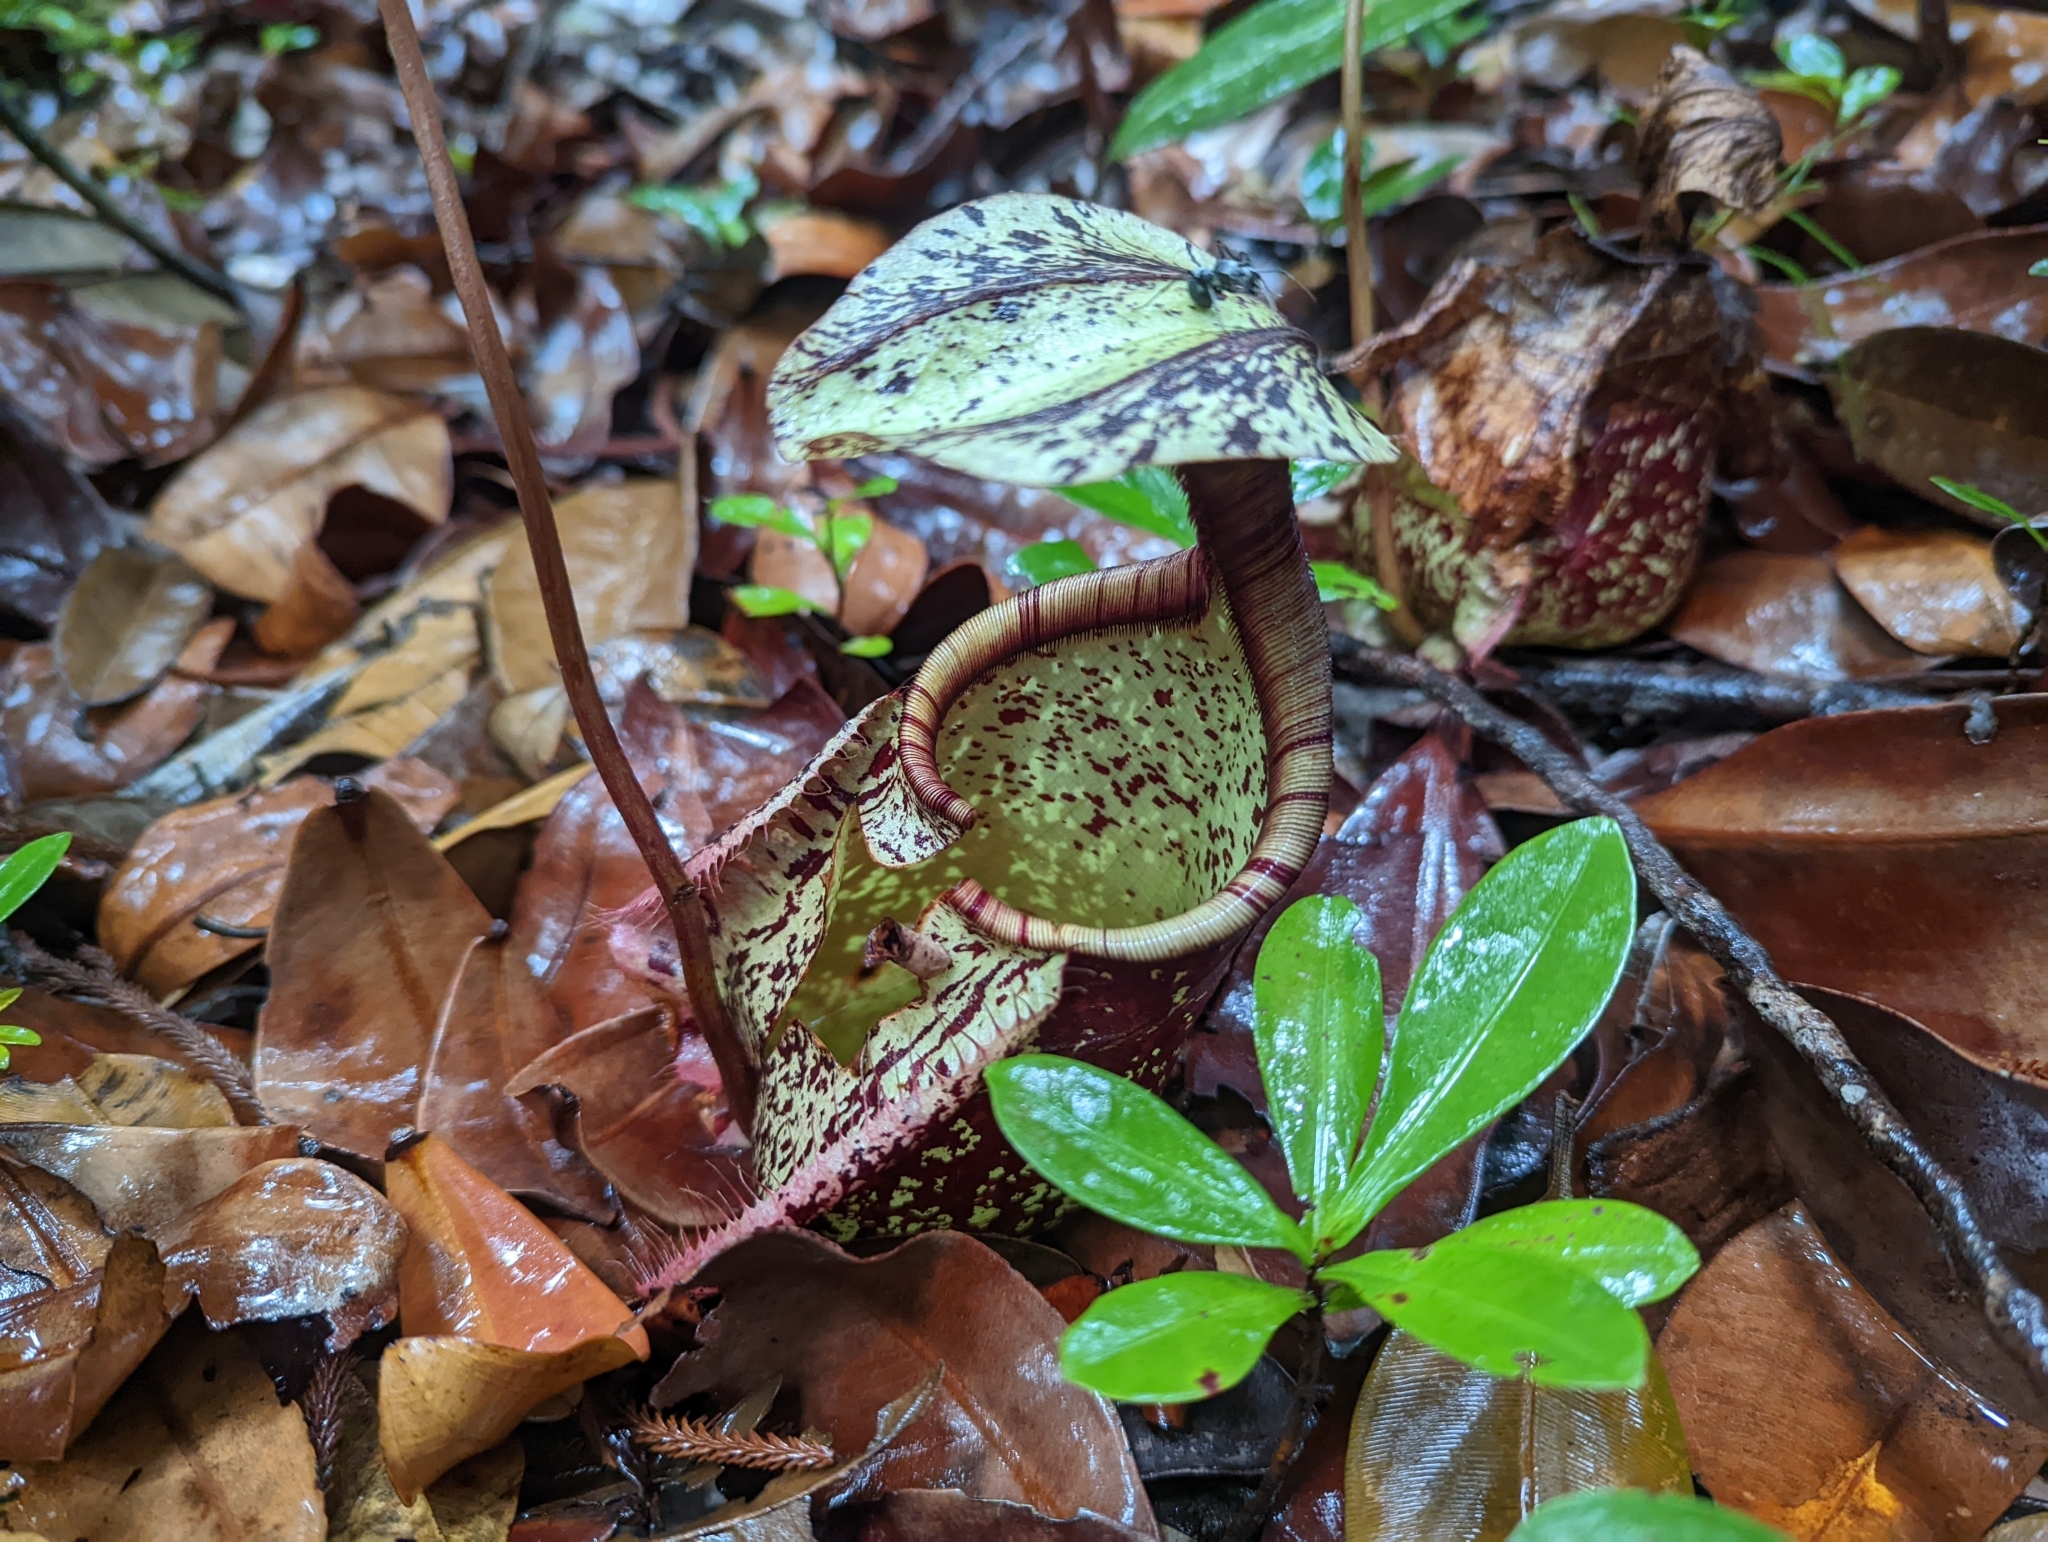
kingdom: Plantae
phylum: Tracheophyta
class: Magnoliopsida
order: Caryophyllales
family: Nepenthaceae
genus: Nepenthes
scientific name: Nepenthes rafflesiana
